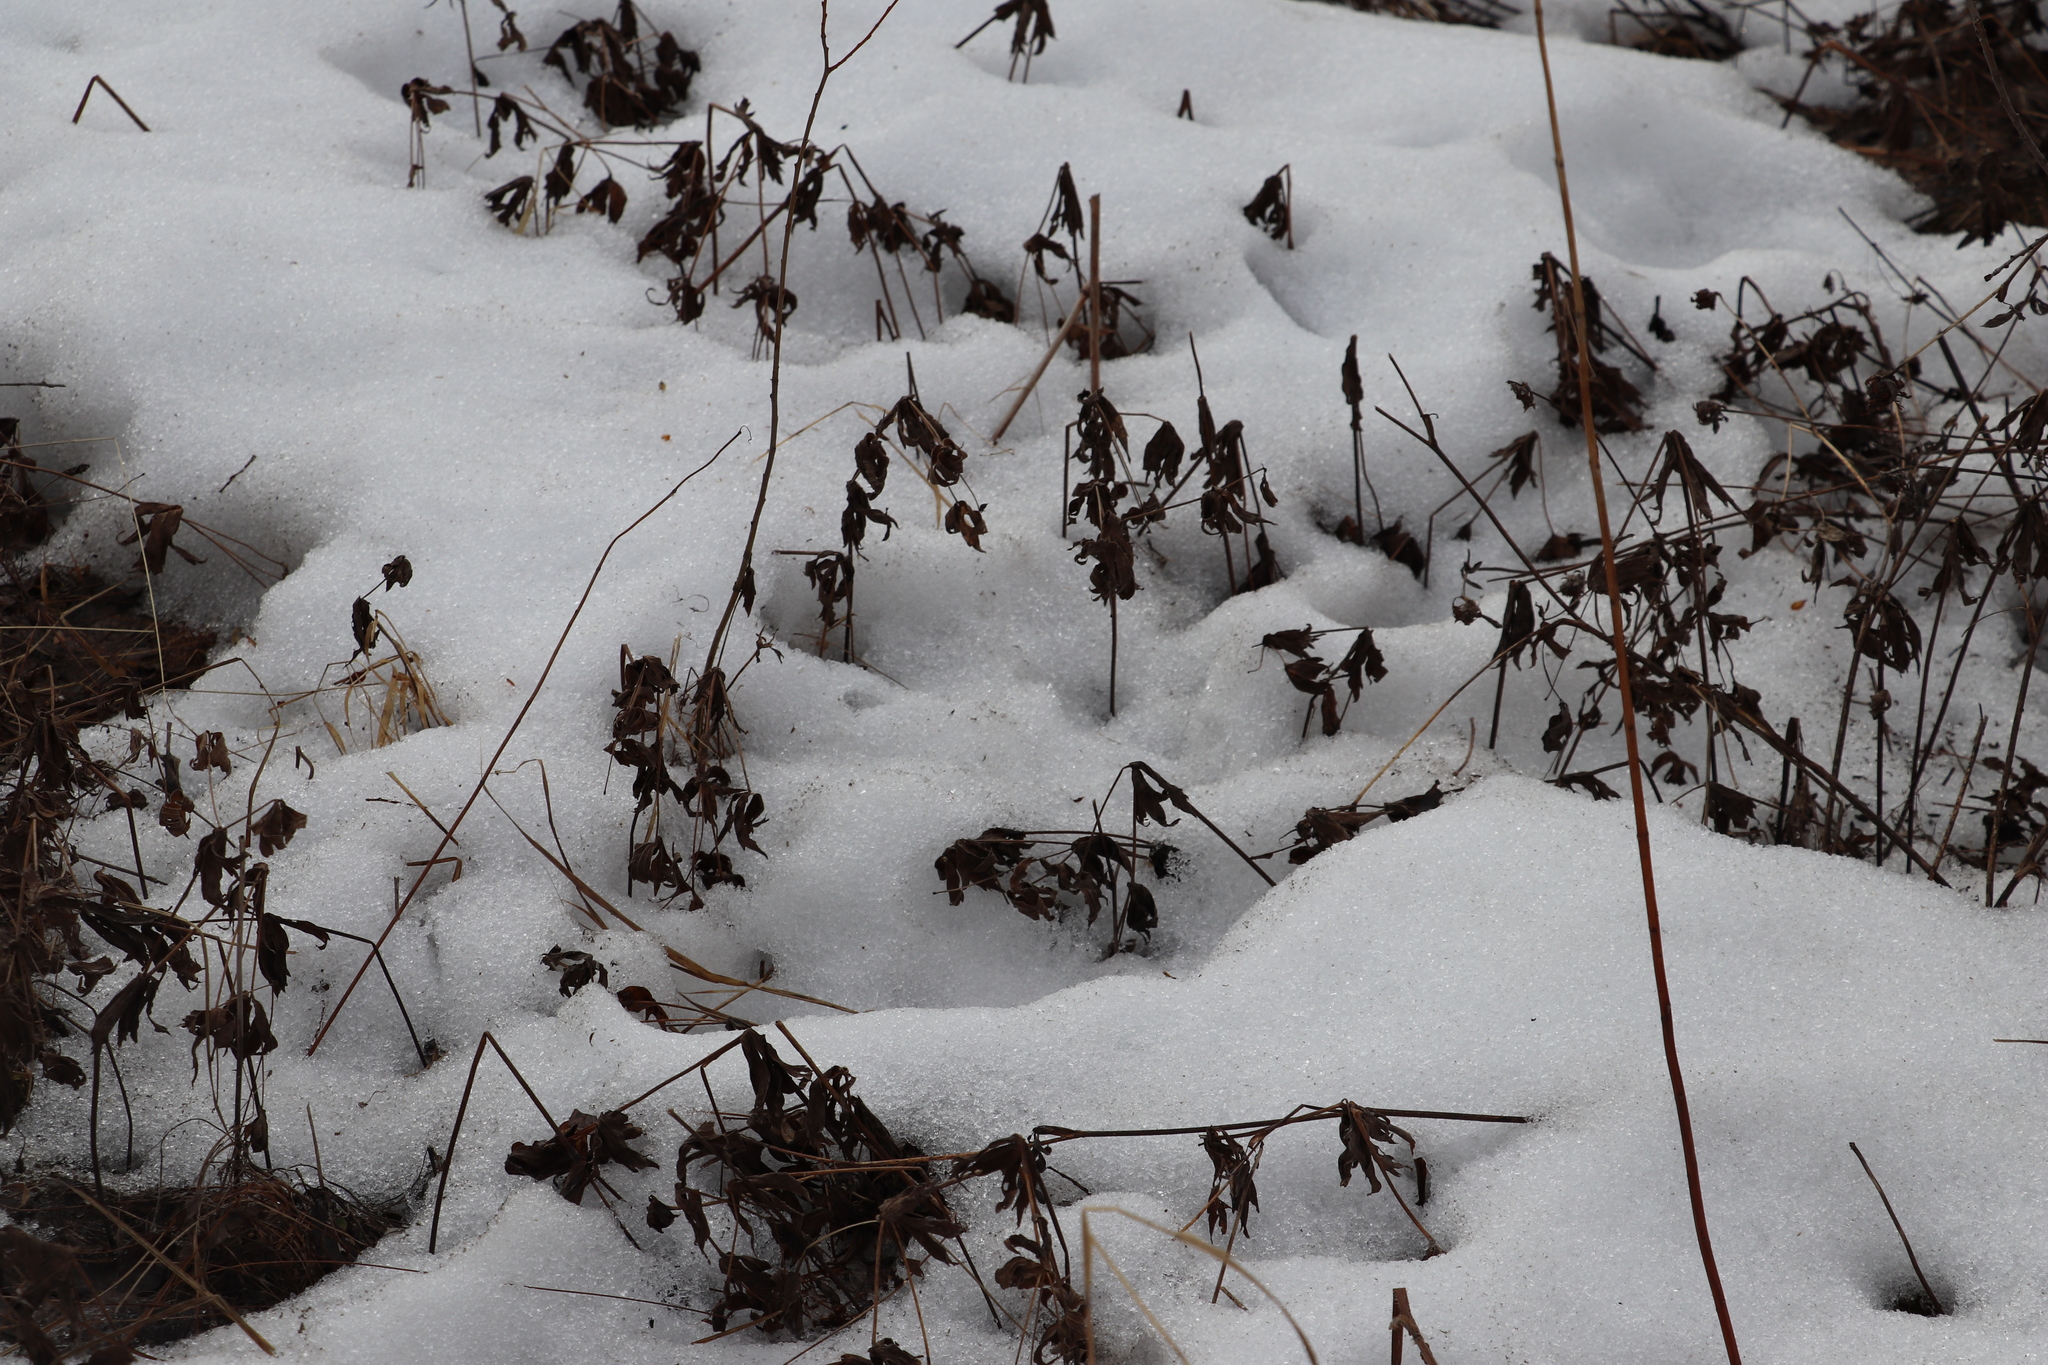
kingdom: Plantae
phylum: Tracheophyta
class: Magnoliopsida
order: Ranunculales
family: Ranunculaceae
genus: Anemonastrum
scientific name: Anemonastrum dichotomum
